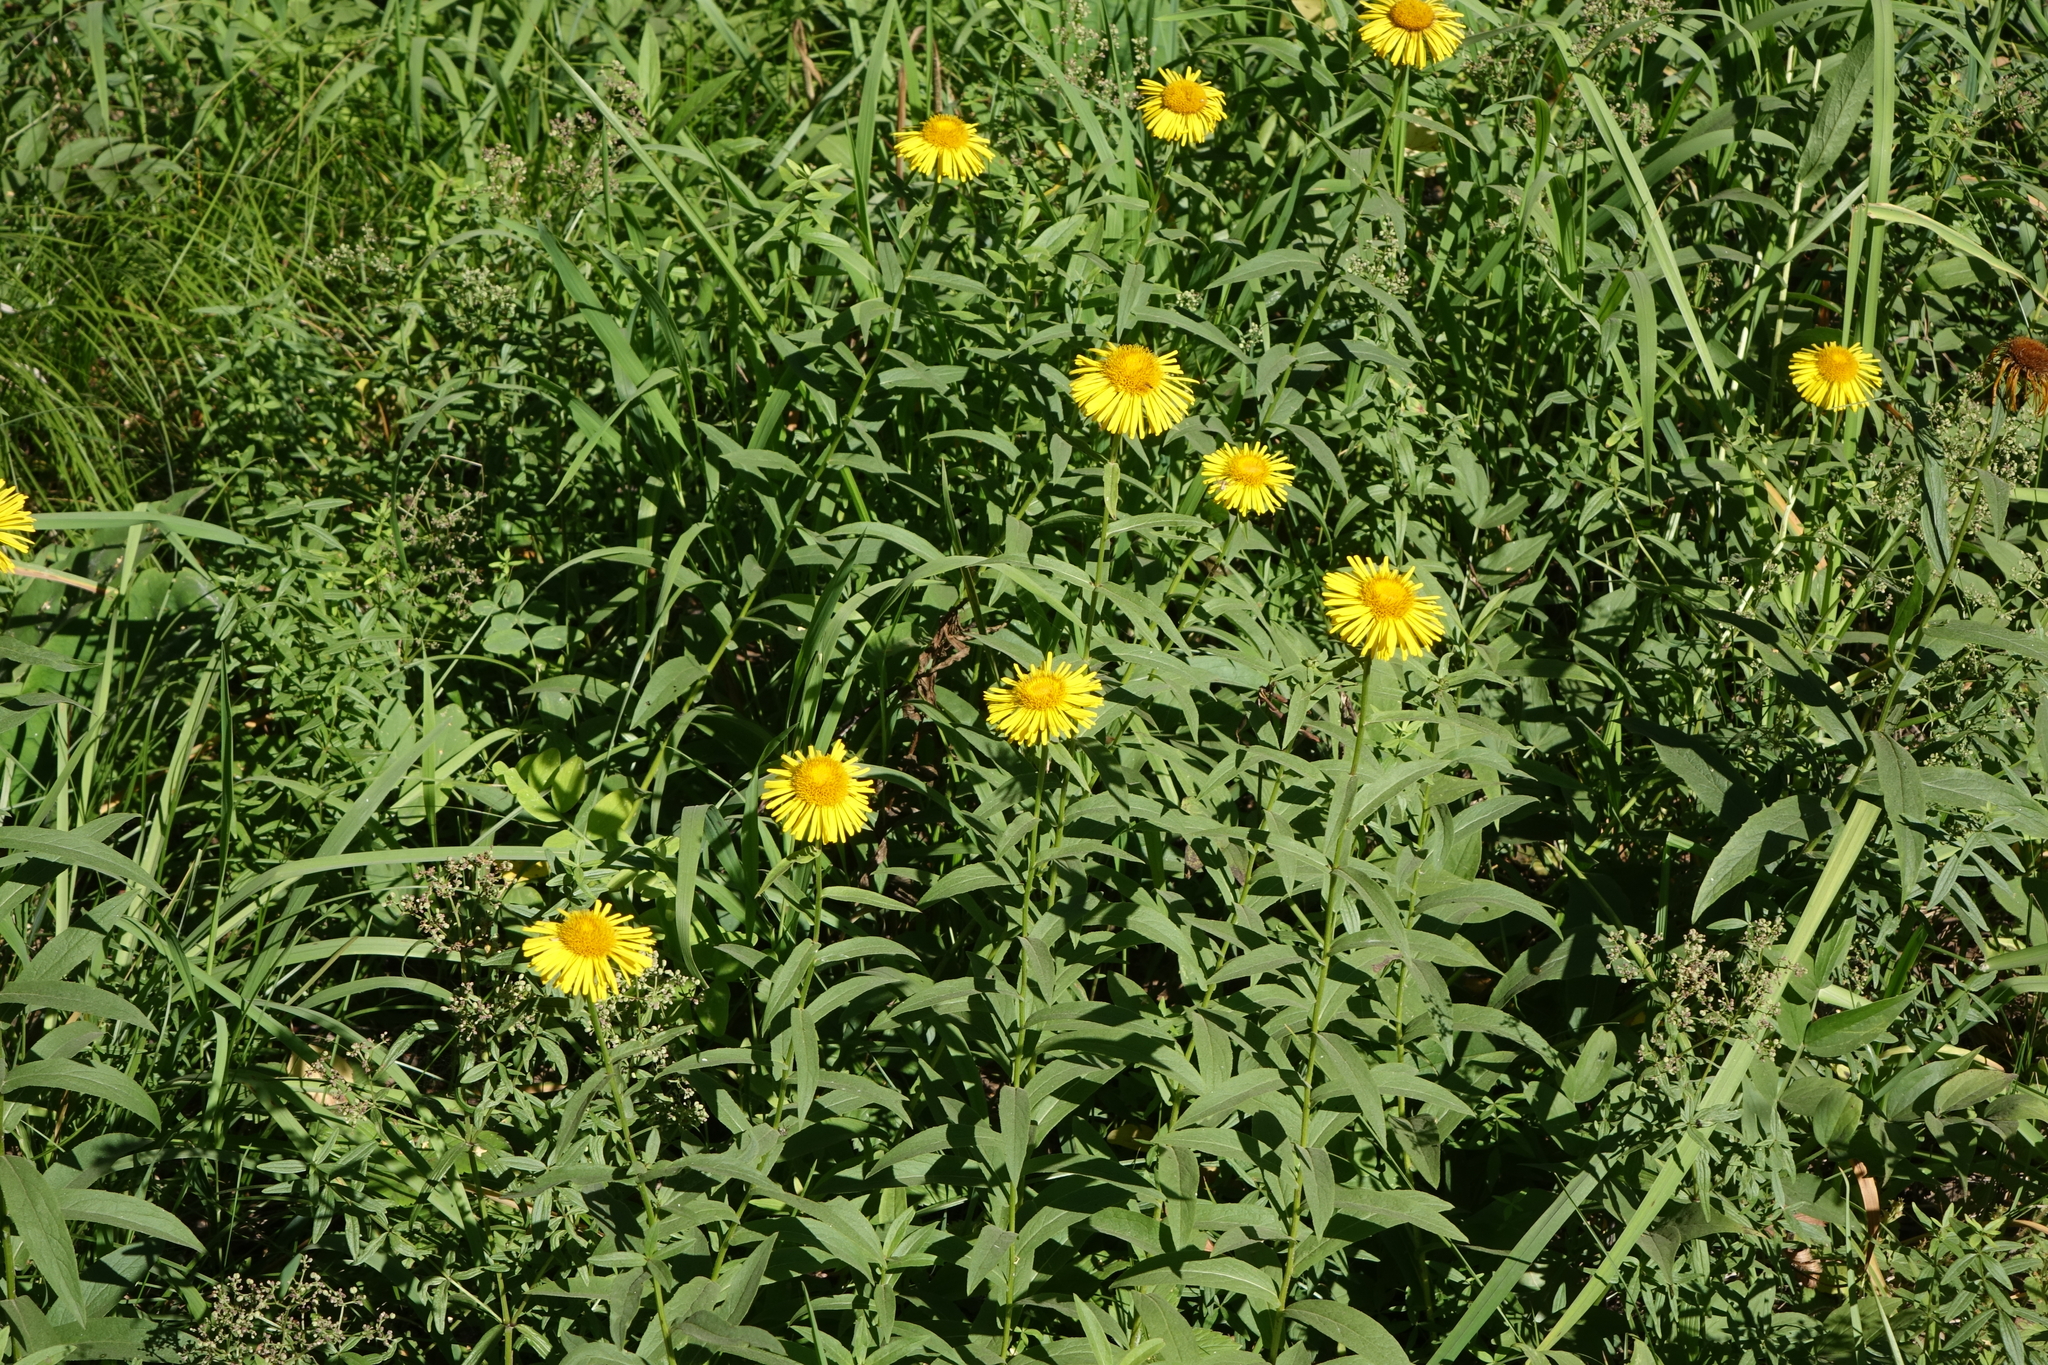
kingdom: Plantae
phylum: Tracheophyta
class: Magnoliopsida
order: Asterales
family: Asteraceae
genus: Pentanema
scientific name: Pentanema salicinum
